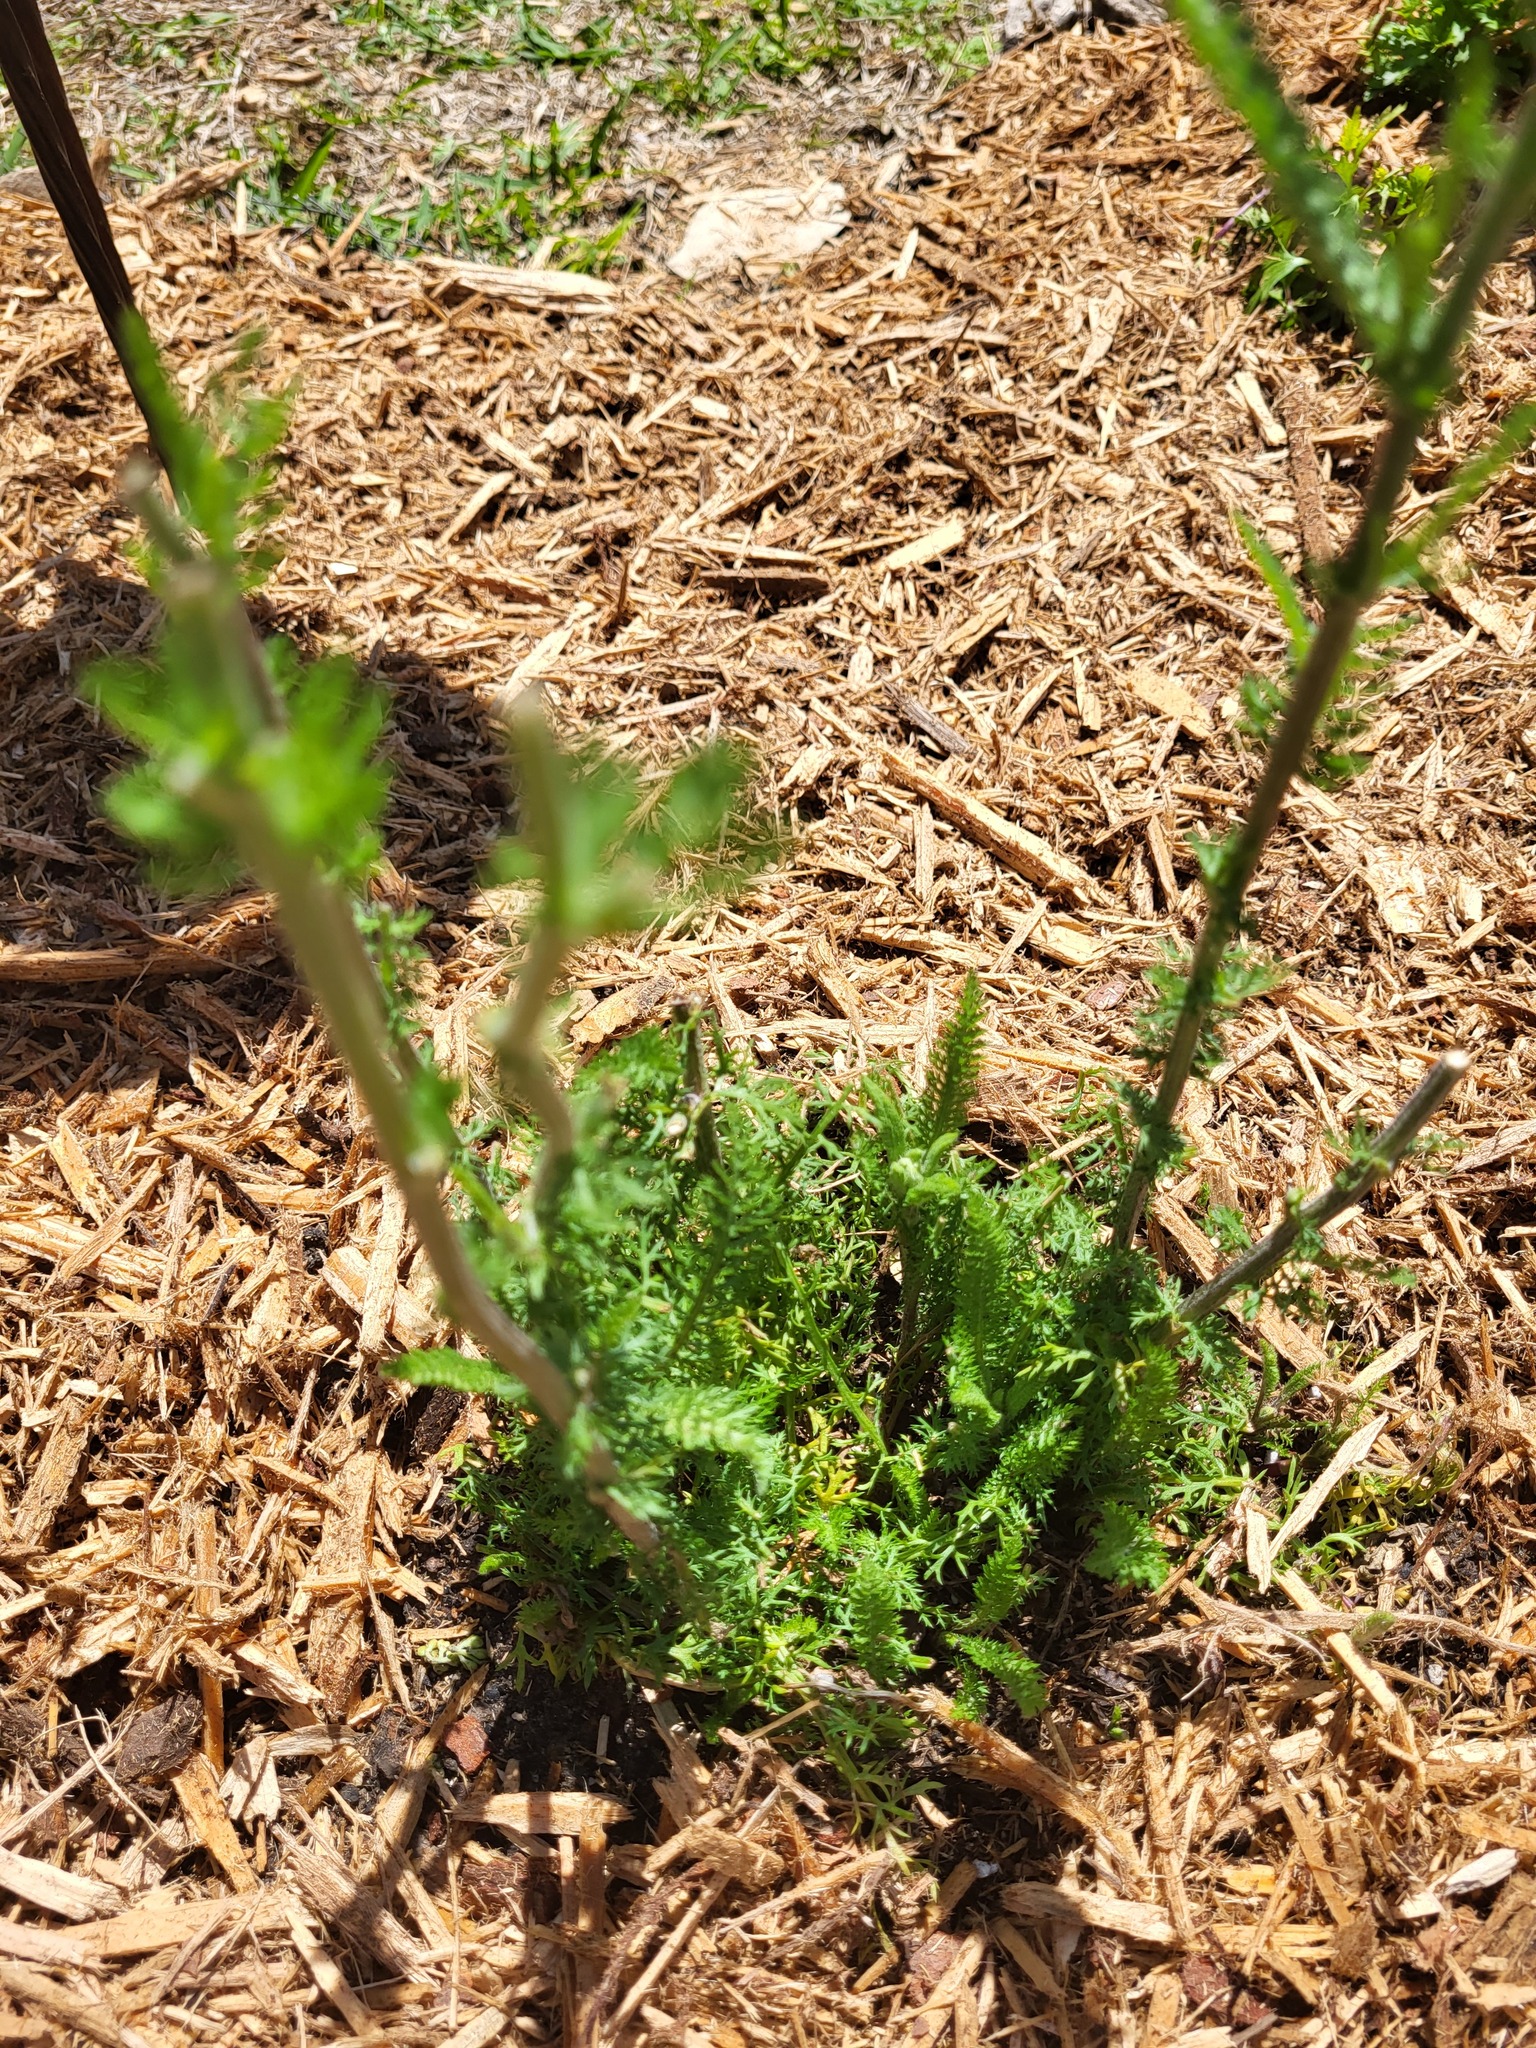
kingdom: Plantae
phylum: Tracheophyta
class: Magnoliopsida
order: Asterales
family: Asteraceae
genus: Achillea
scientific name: Achillea millefolium
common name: Yarrow
